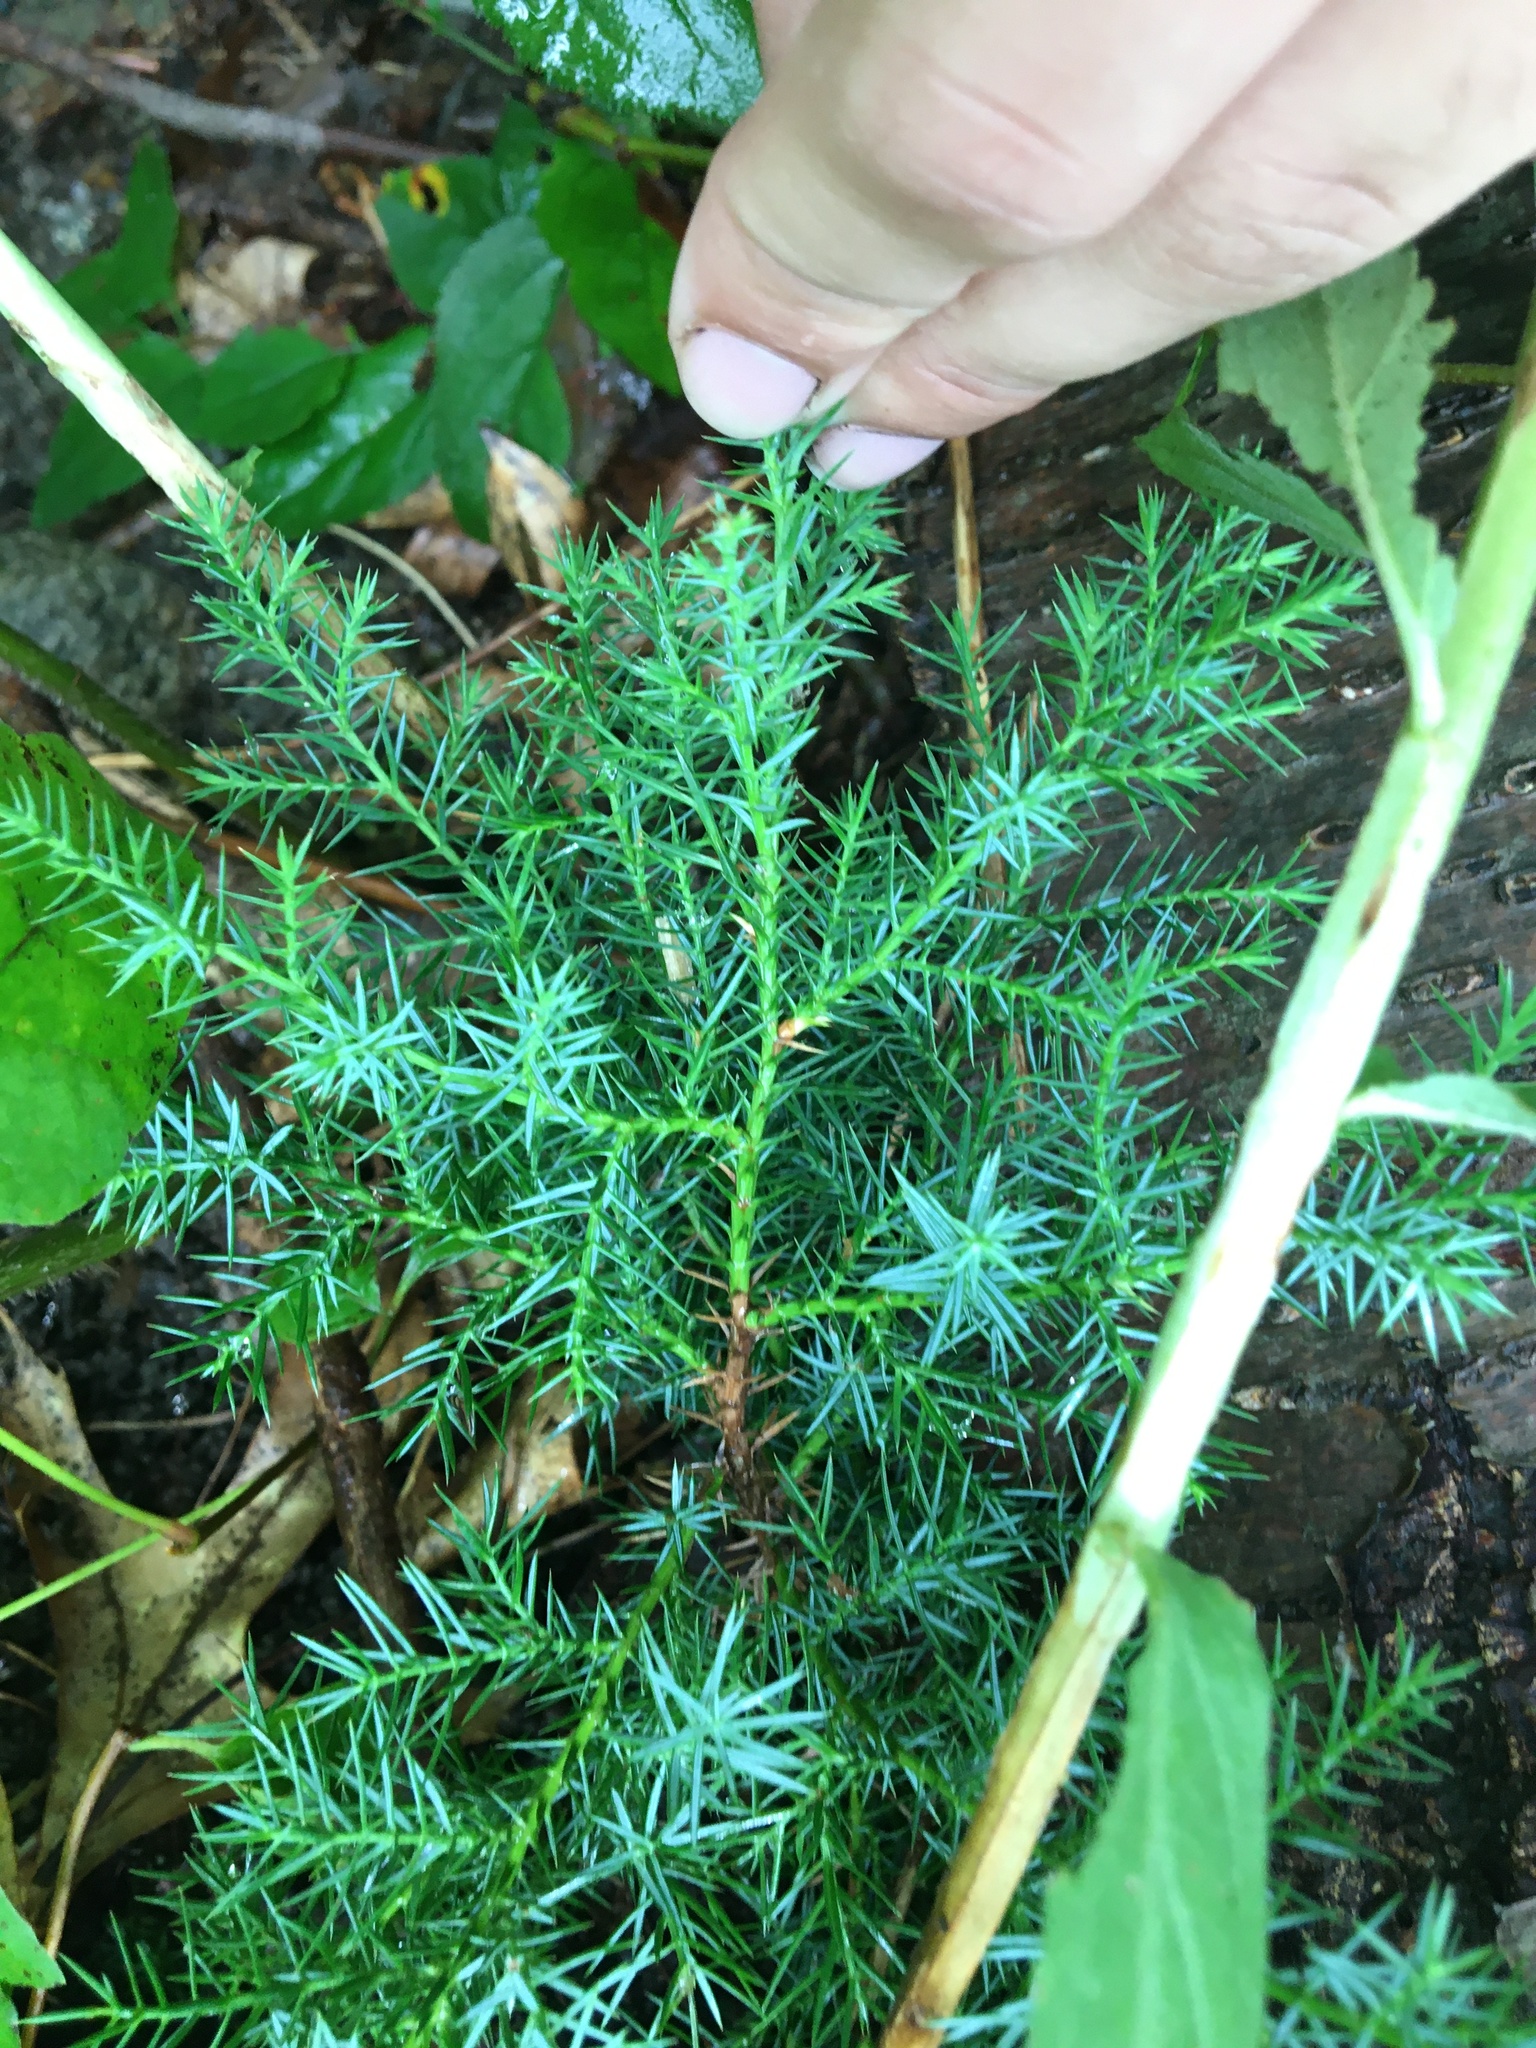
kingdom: Plantae
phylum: Tracheophyta
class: Pinopsida
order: Pinales
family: Cupressaceae
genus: Juniperus
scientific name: Juniperus virginiana
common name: Red juniper
